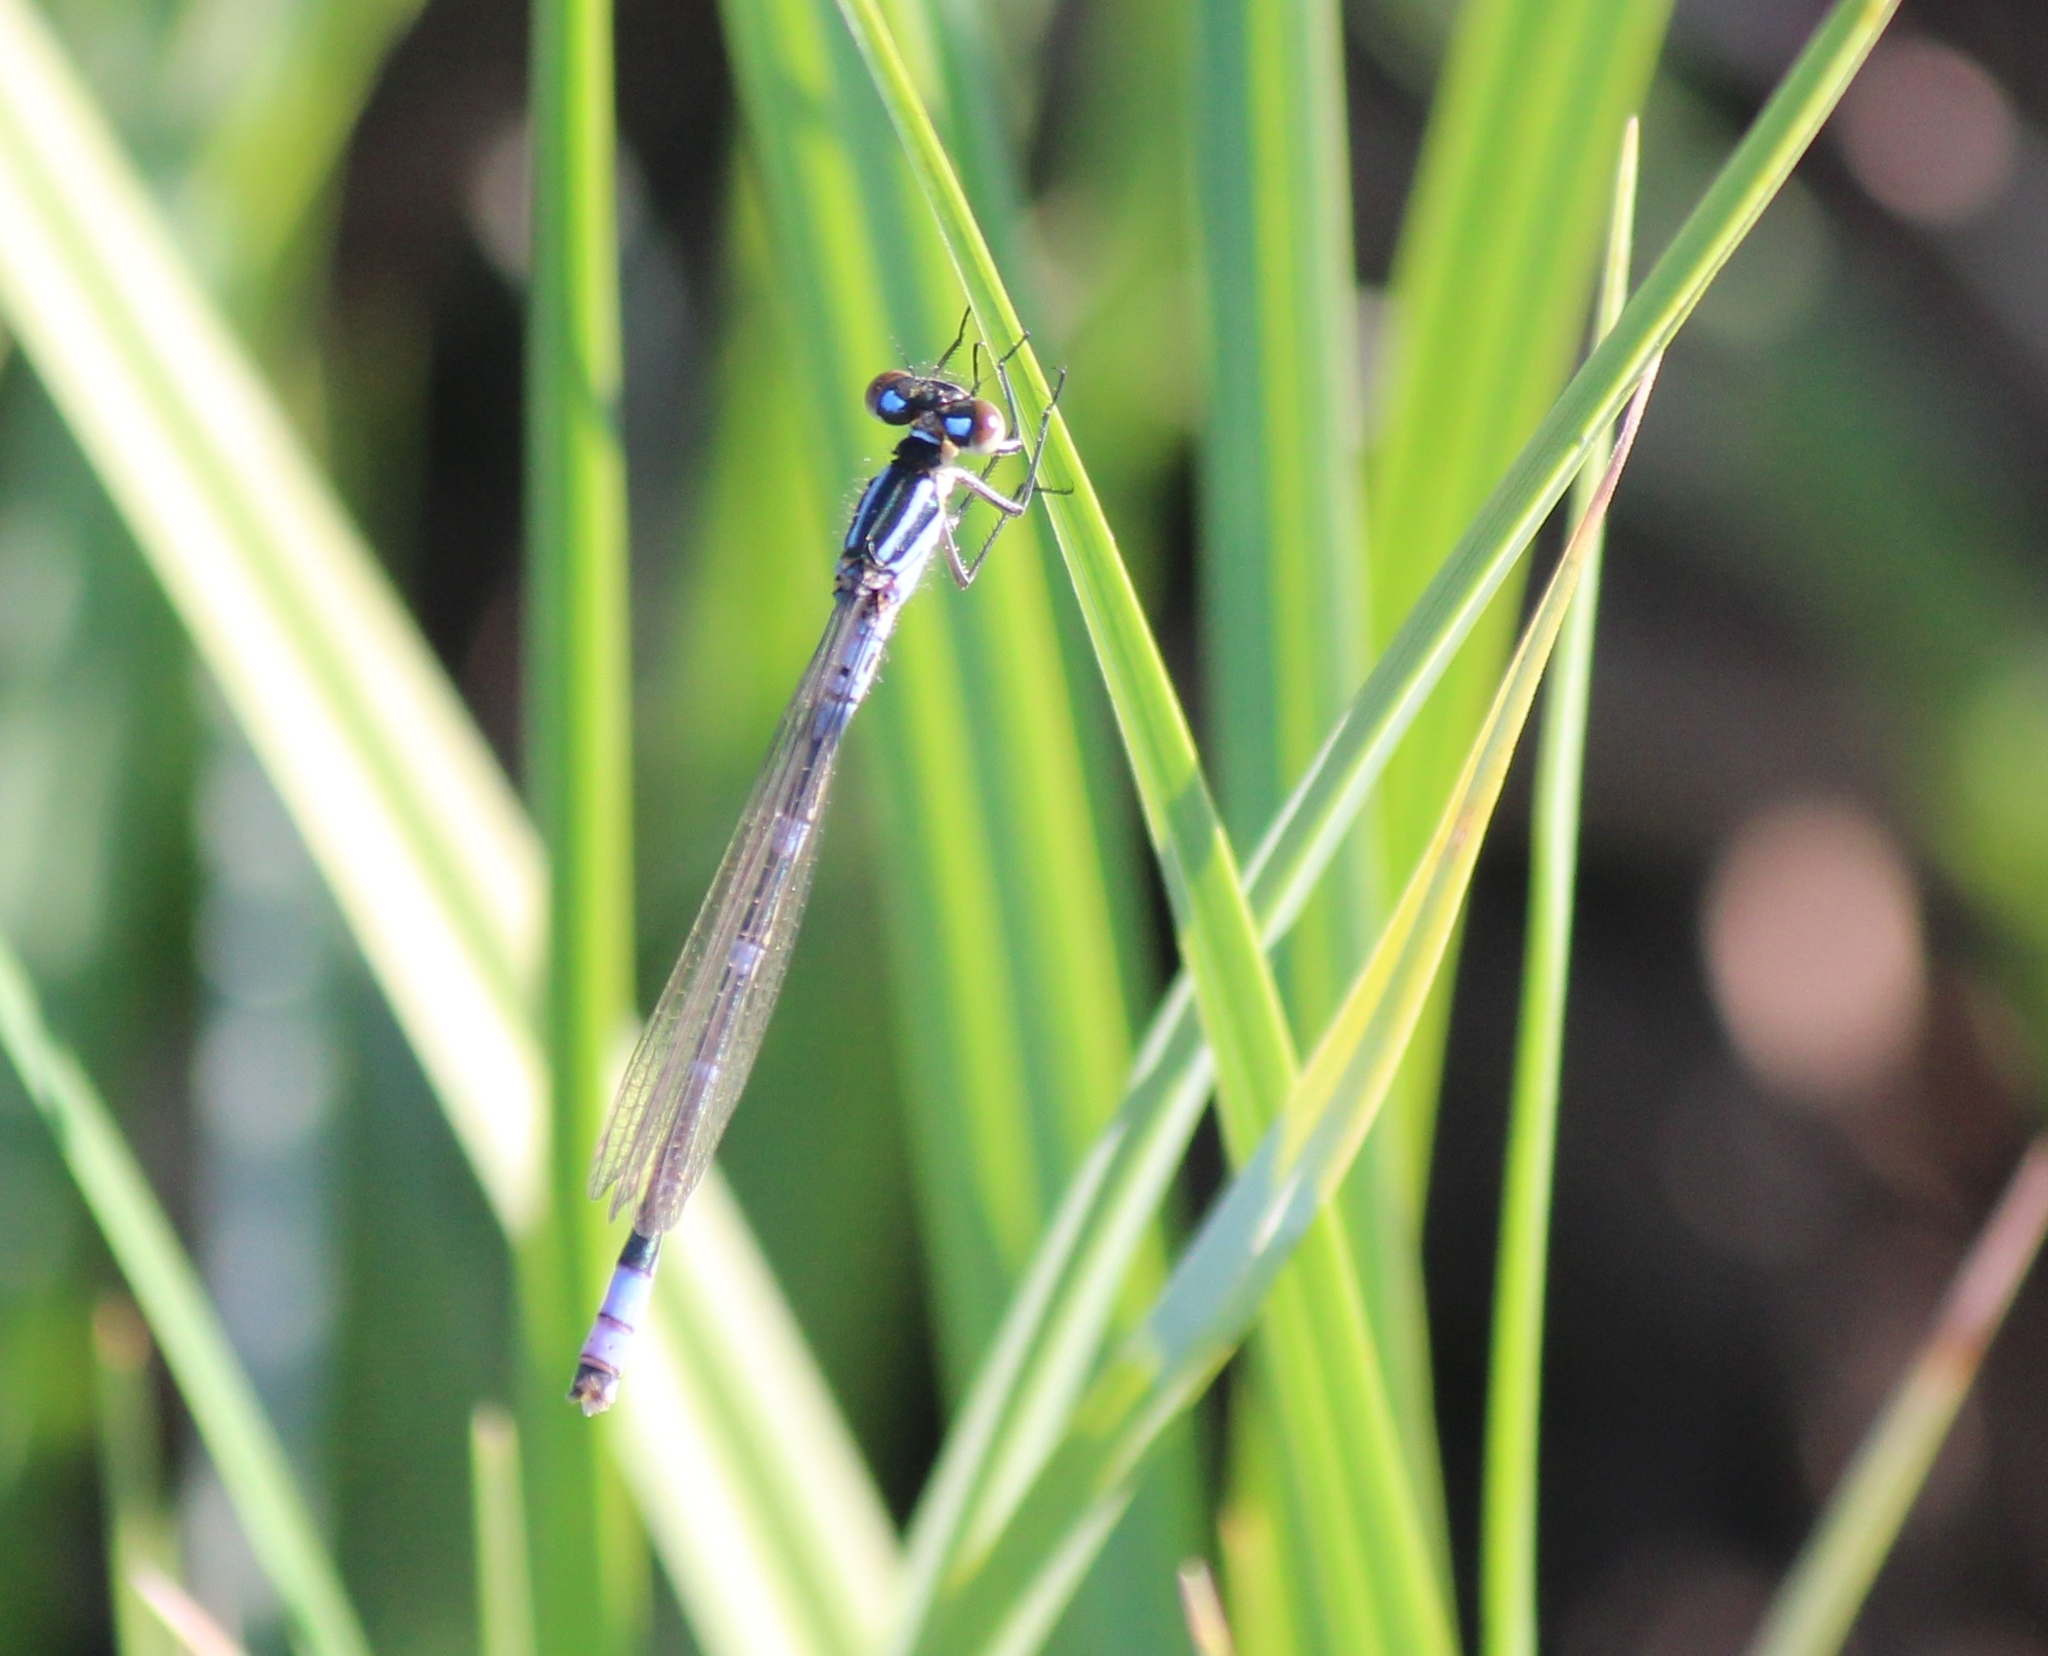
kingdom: Animalia
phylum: Arthropoda
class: Insecta
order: Odonata
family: Coenagrionidae
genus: Coenagrion
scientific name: Coenagrion lunulatum
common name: Irish damselfly
